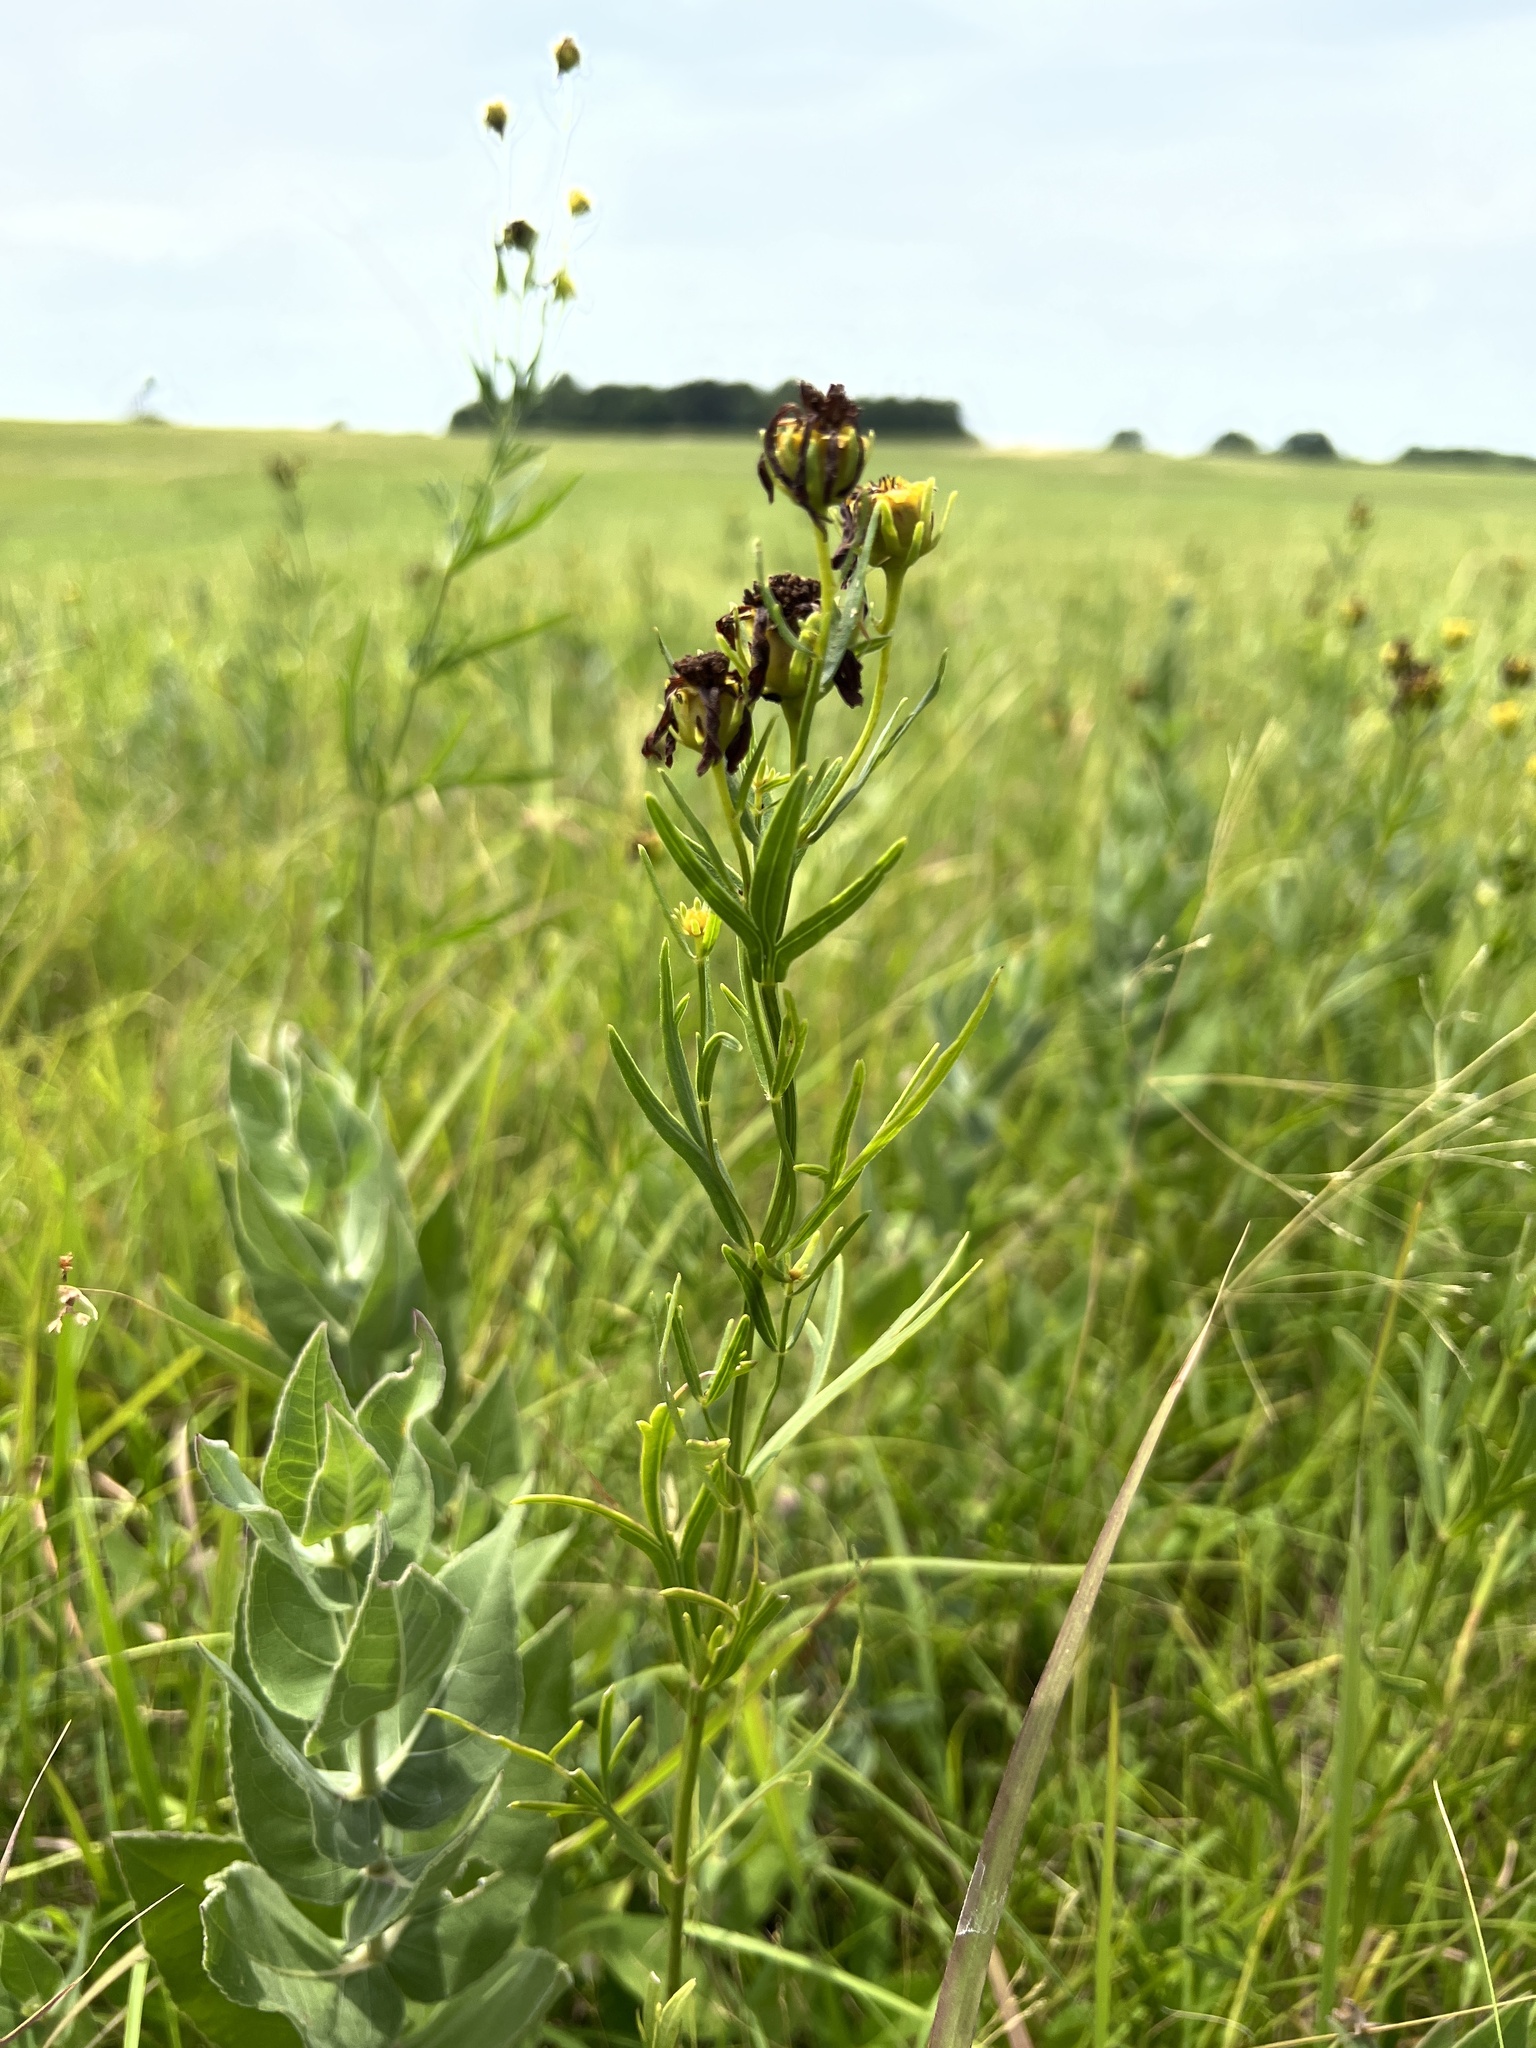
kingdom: Plantae
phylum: Tracheophyta
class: Magnoliopsida
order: Asterales
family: Asteraceae
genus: Coreopsis
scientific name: Coreopsis palmata
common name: Prairie coreopsis
